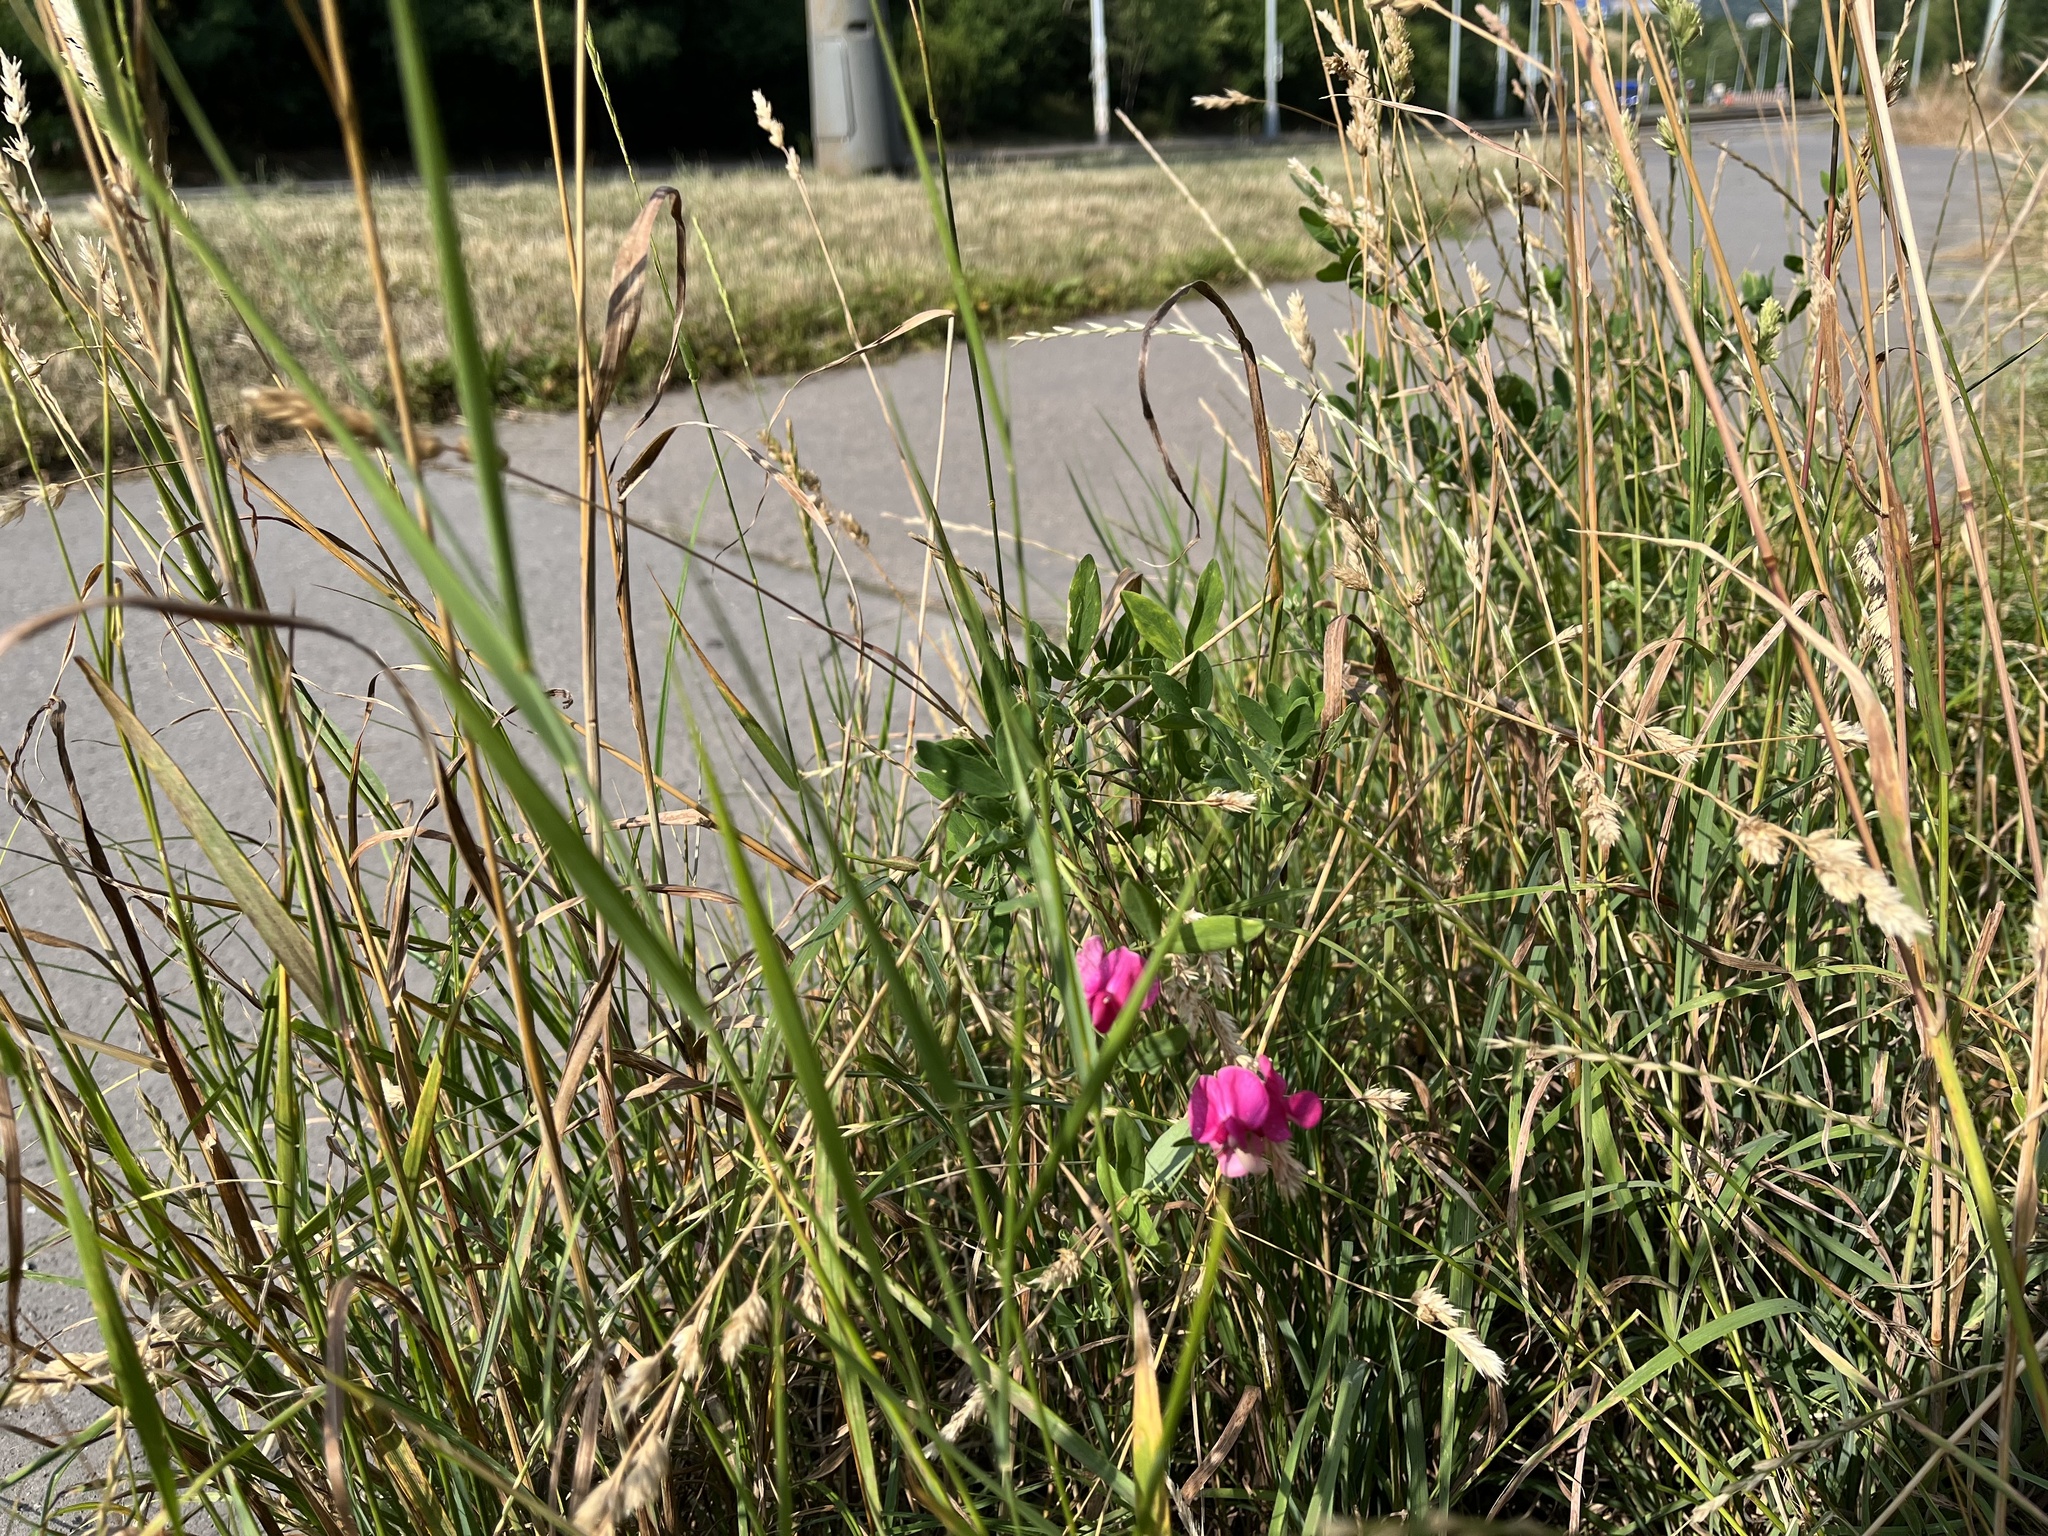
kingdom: Plantae
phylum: Tracheophyta
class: Magnoliopsida
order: Fabales
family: Fabaceae
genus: Lathyrus
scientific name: Lathyrus tuberosus
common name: Tuberous pea
